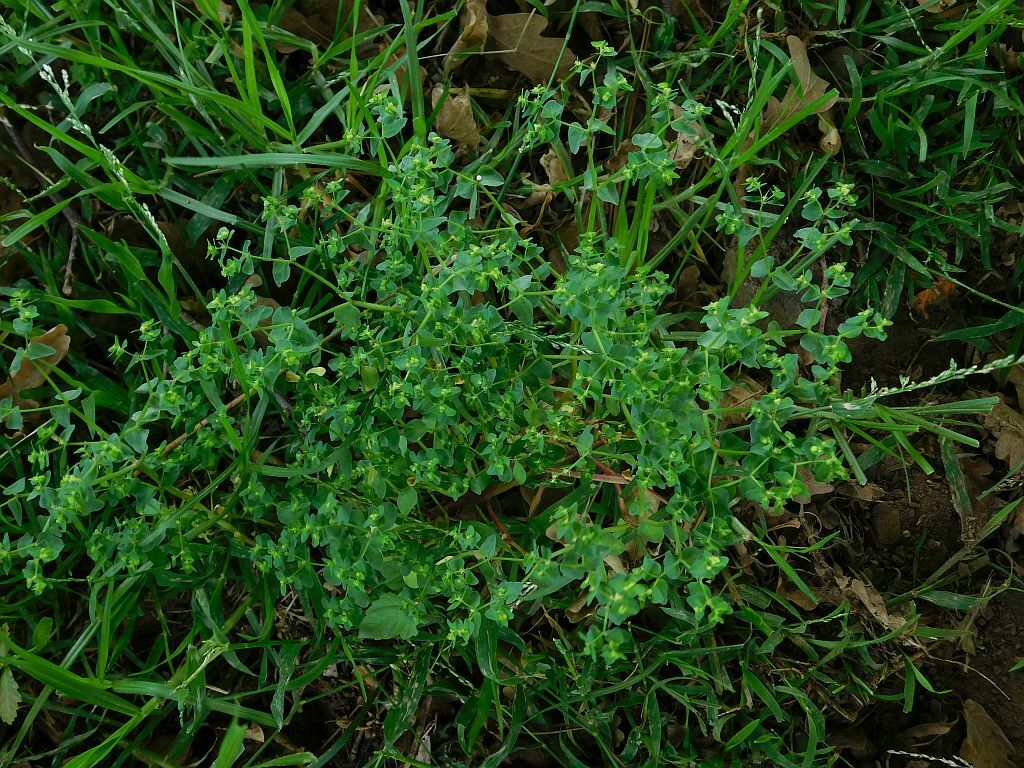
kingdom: Plantae
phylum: Tracheophyta
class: Magnoliopsida
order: Malpighiales
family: Euphorbiaceae
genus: Euphorbia
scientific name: Euphorbia peplus
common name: Petty spurge
